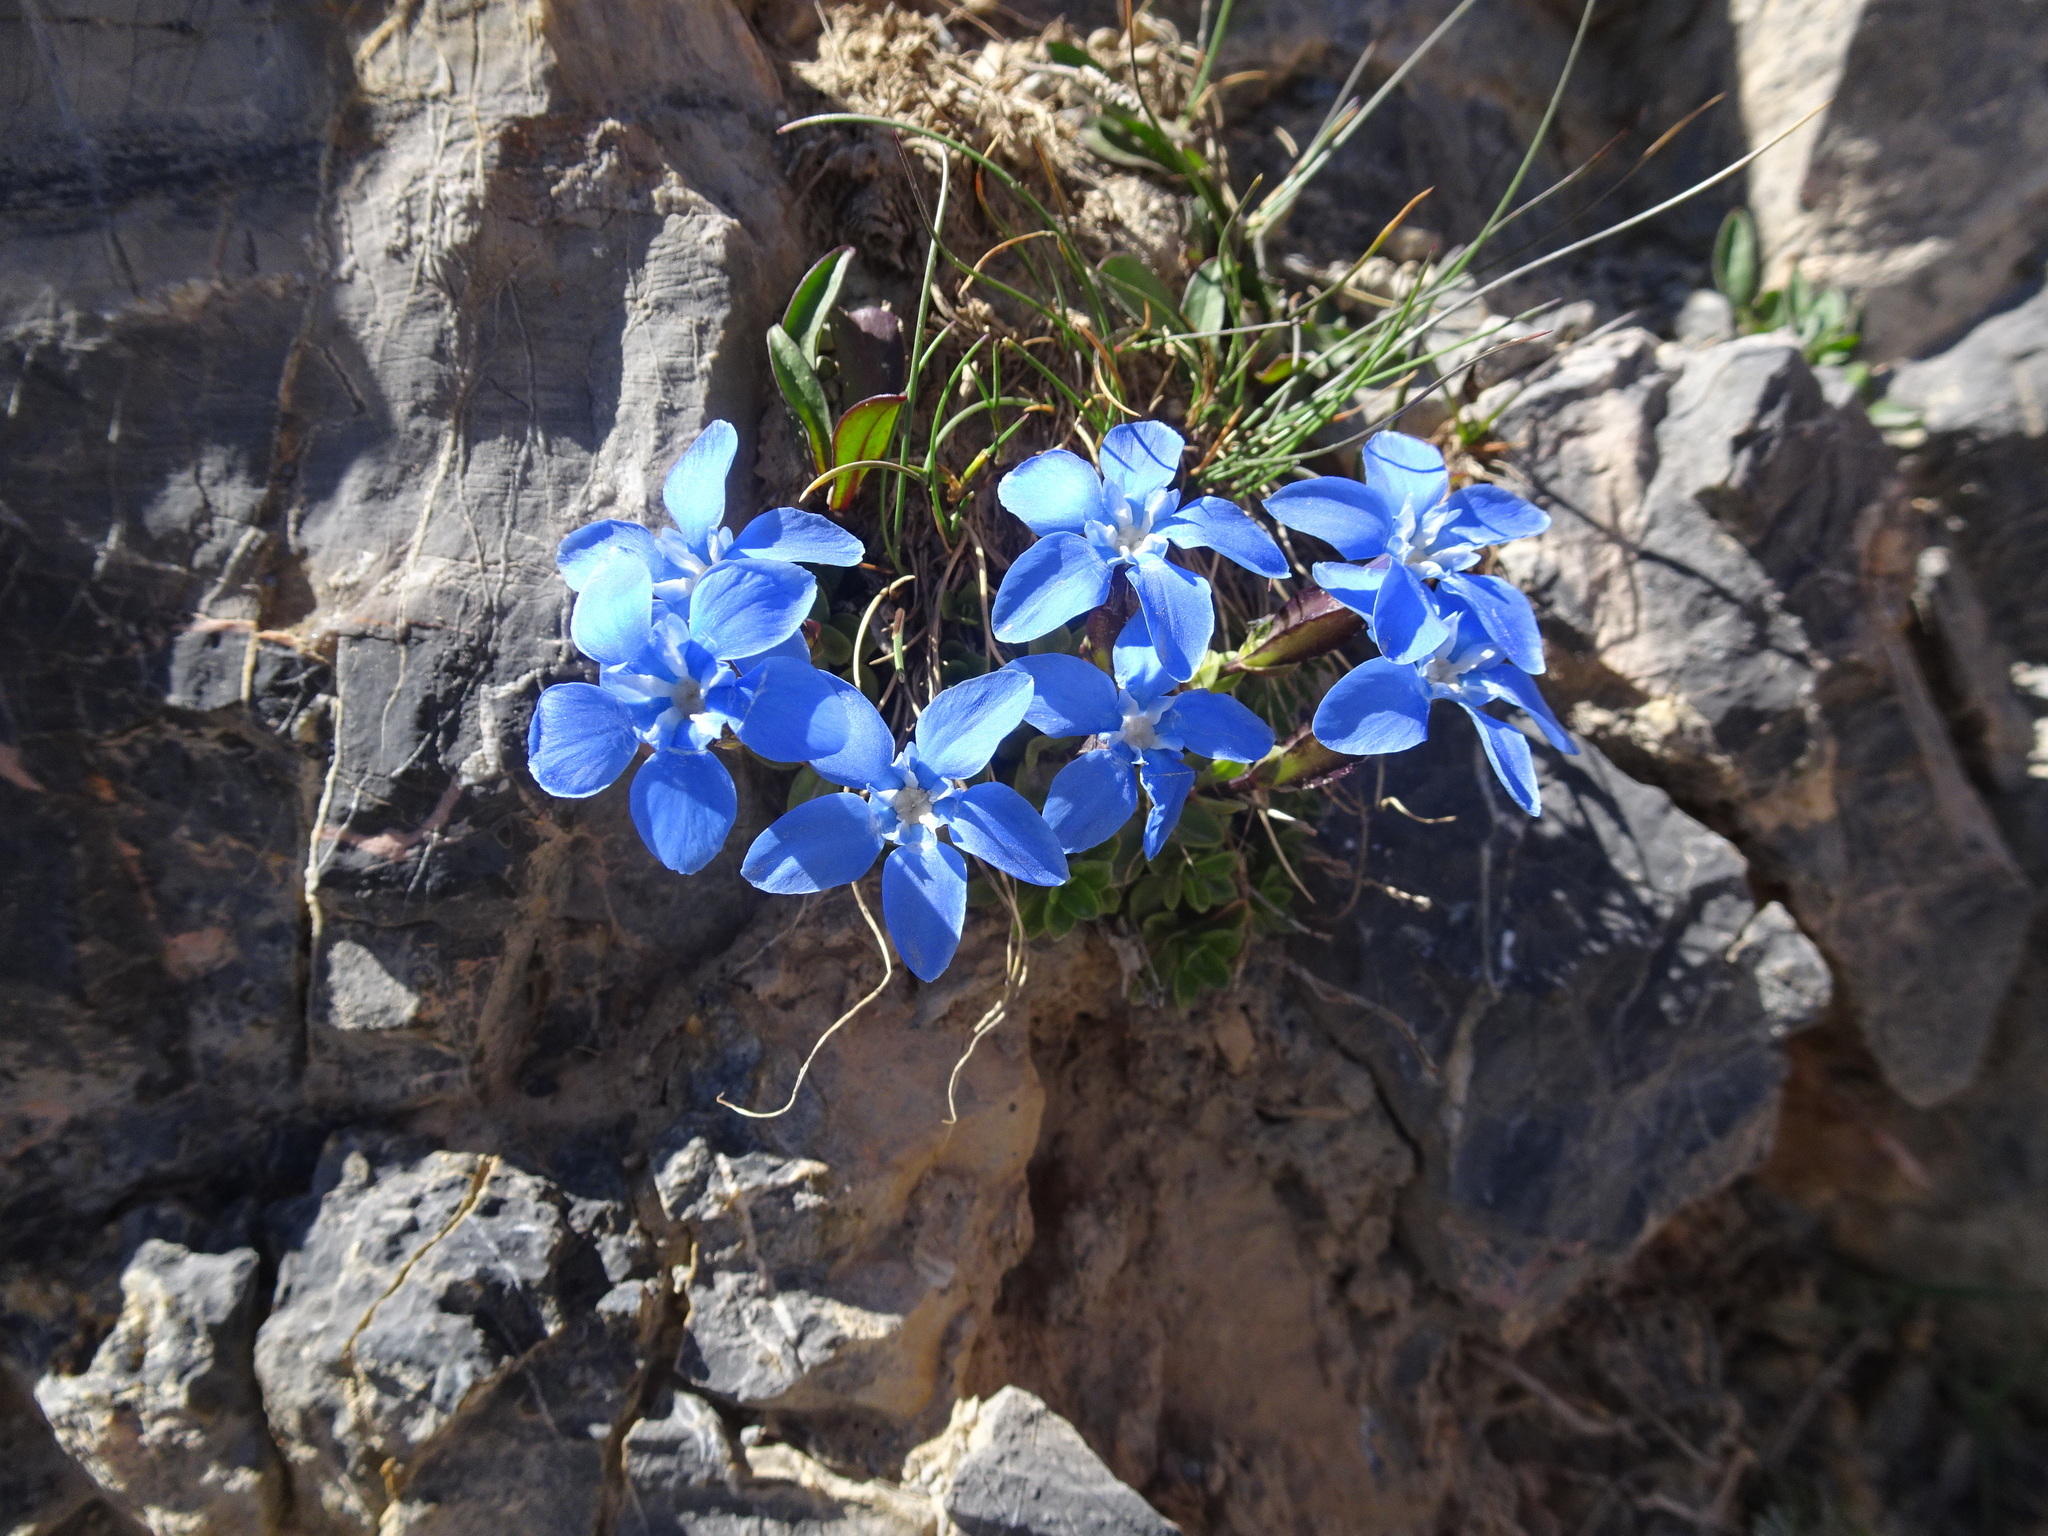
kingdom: Plantae
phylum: Tracheophyta
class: Magnoliopsida
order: Gentianales
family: Gentianaceae
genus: Gentiana
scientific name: Gentiana verna
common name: Spring gentian
